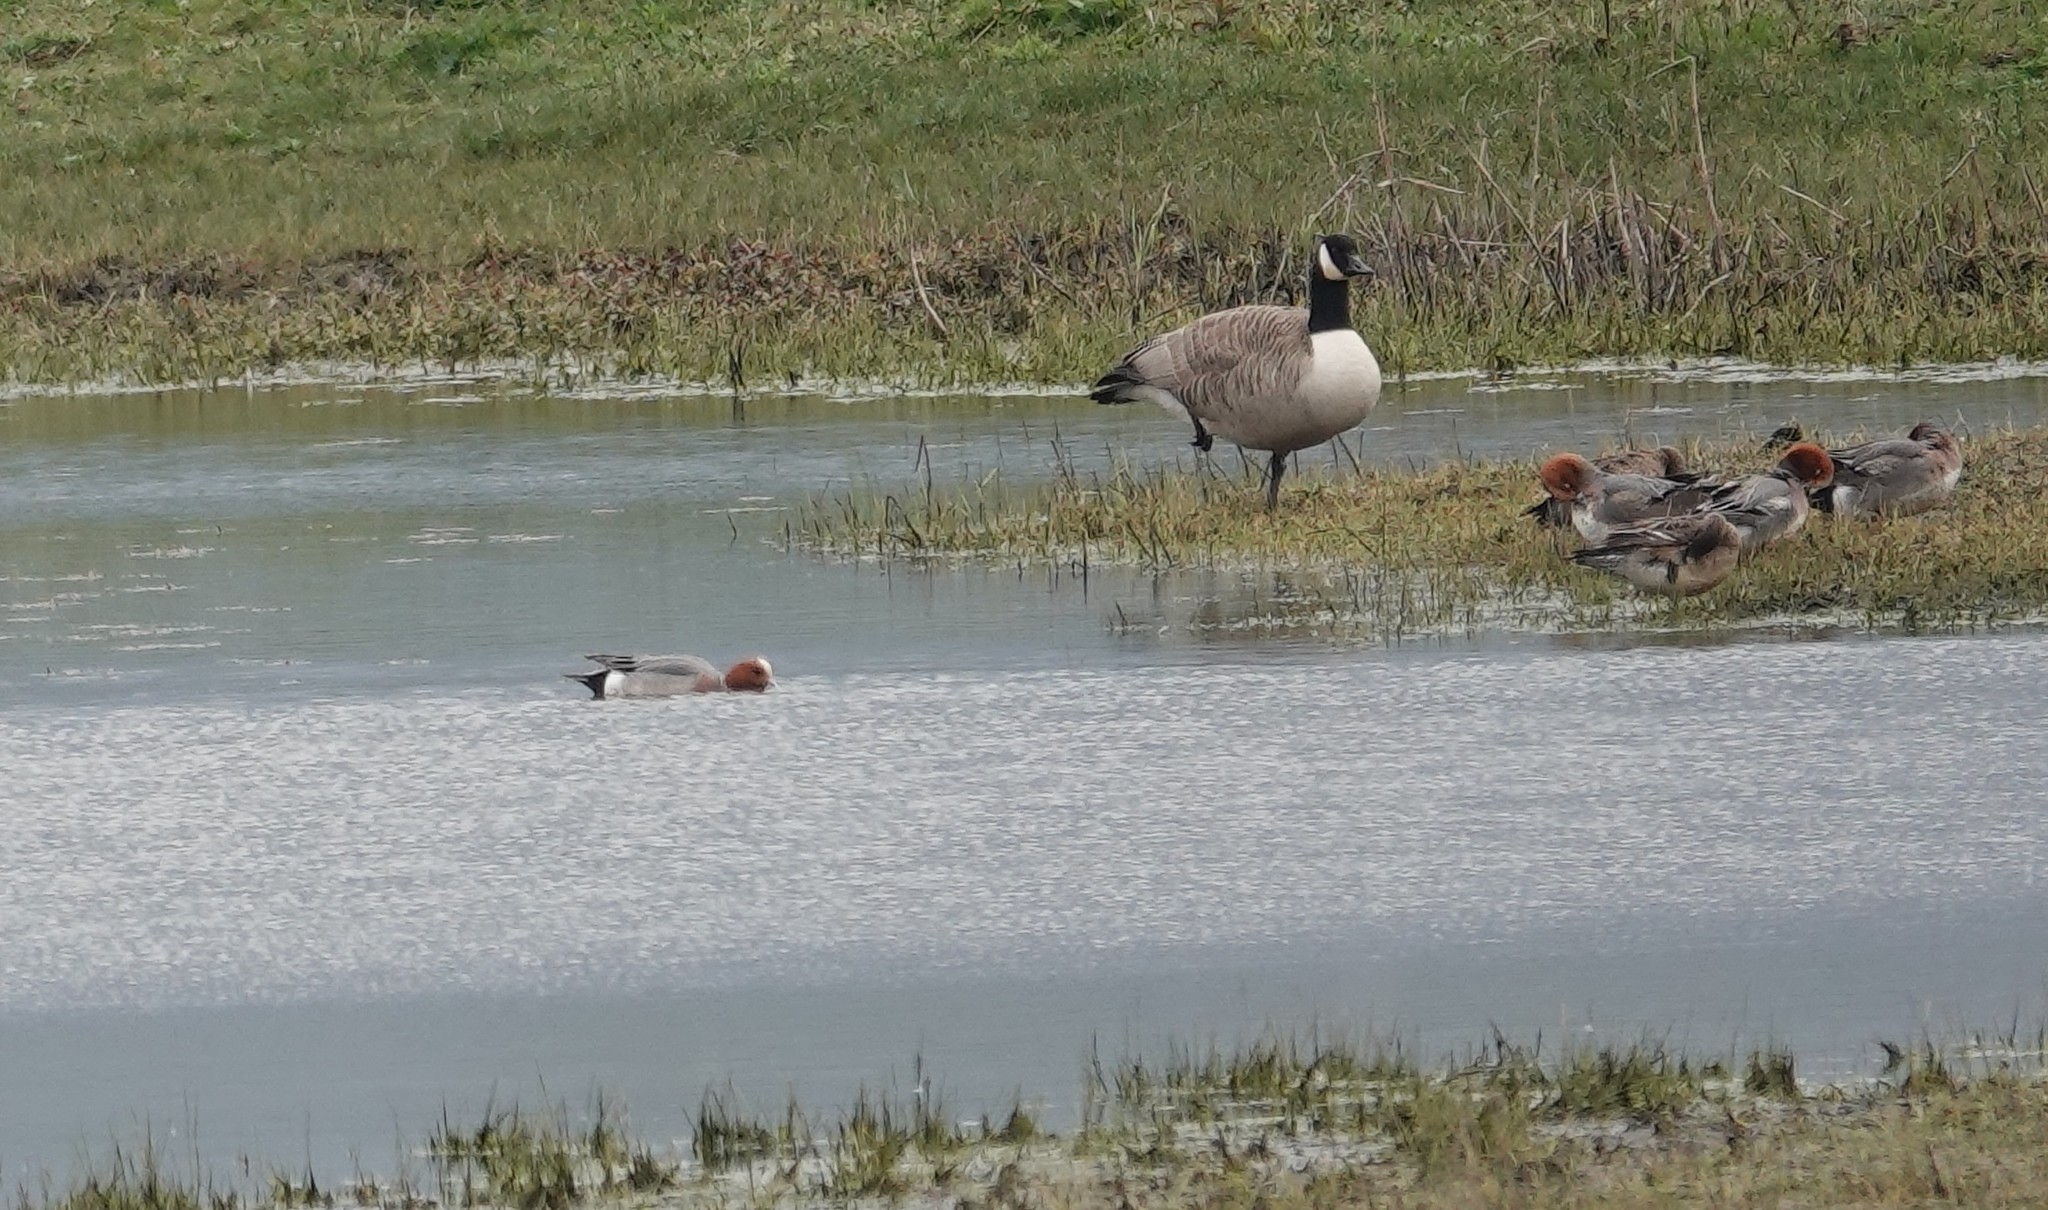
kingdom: Animalia
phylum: Chordata
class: Aves
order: Anseriformes
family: Anatidae
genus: Mareca
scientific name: Mareca penelope
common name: Eurasian wigeon
